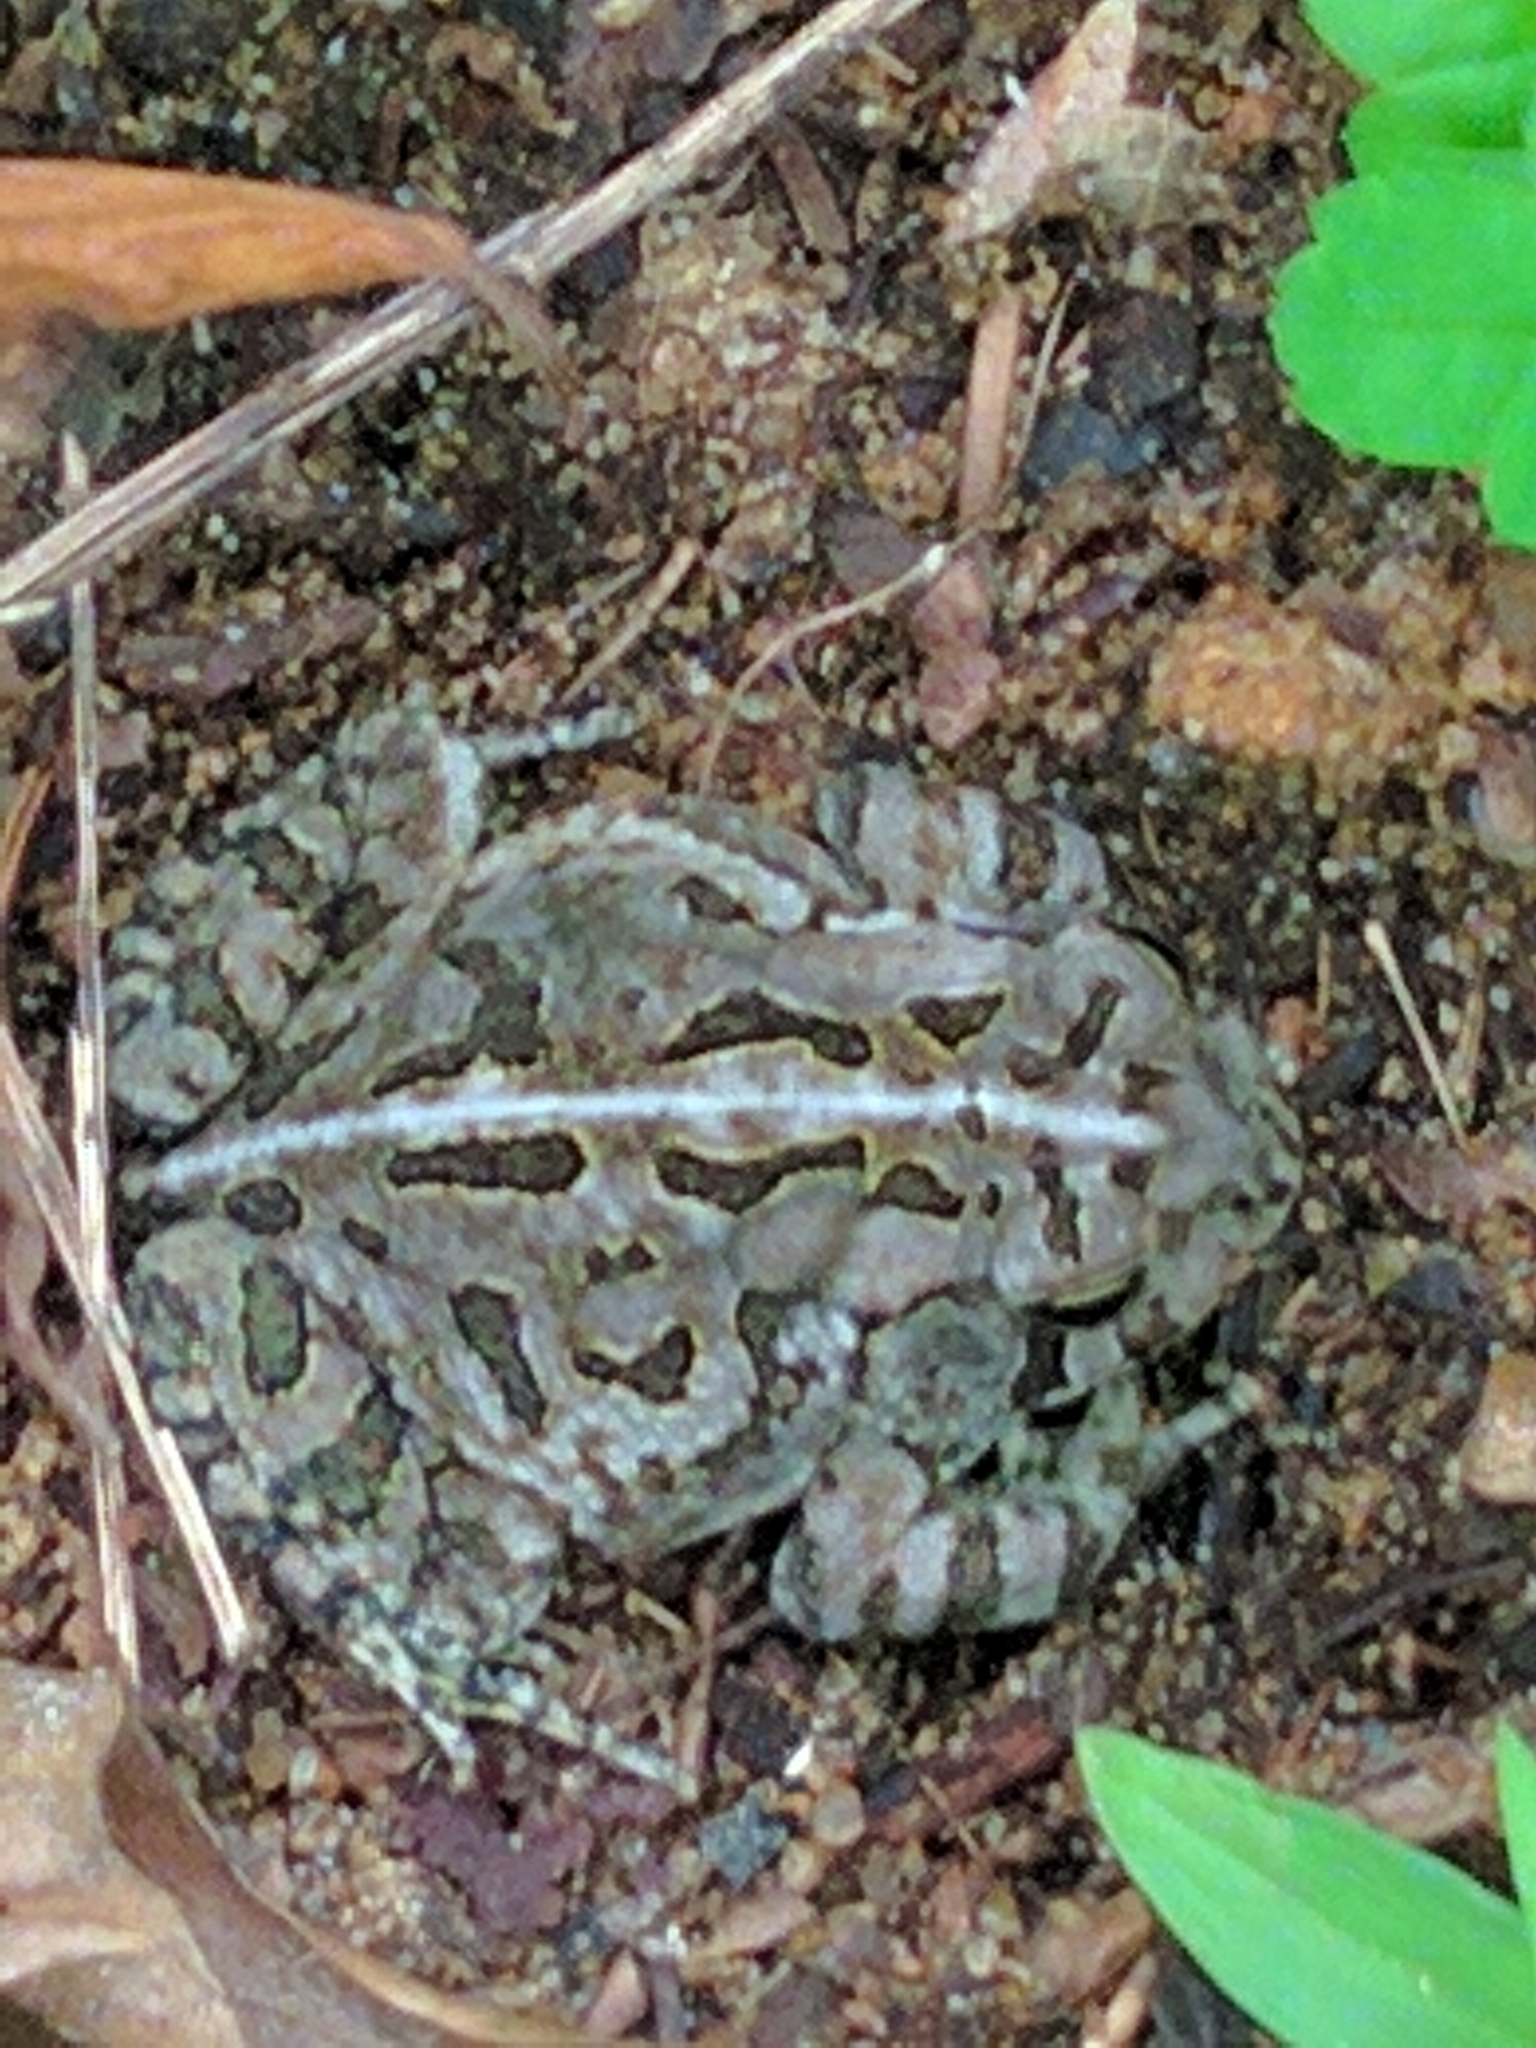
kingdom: Animalia
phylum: Chordata
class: Amphibia
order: Anura
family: Bufonidae
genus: Anaxyrus
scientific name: Anaxyrus fowleri
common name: Fowler's toad
